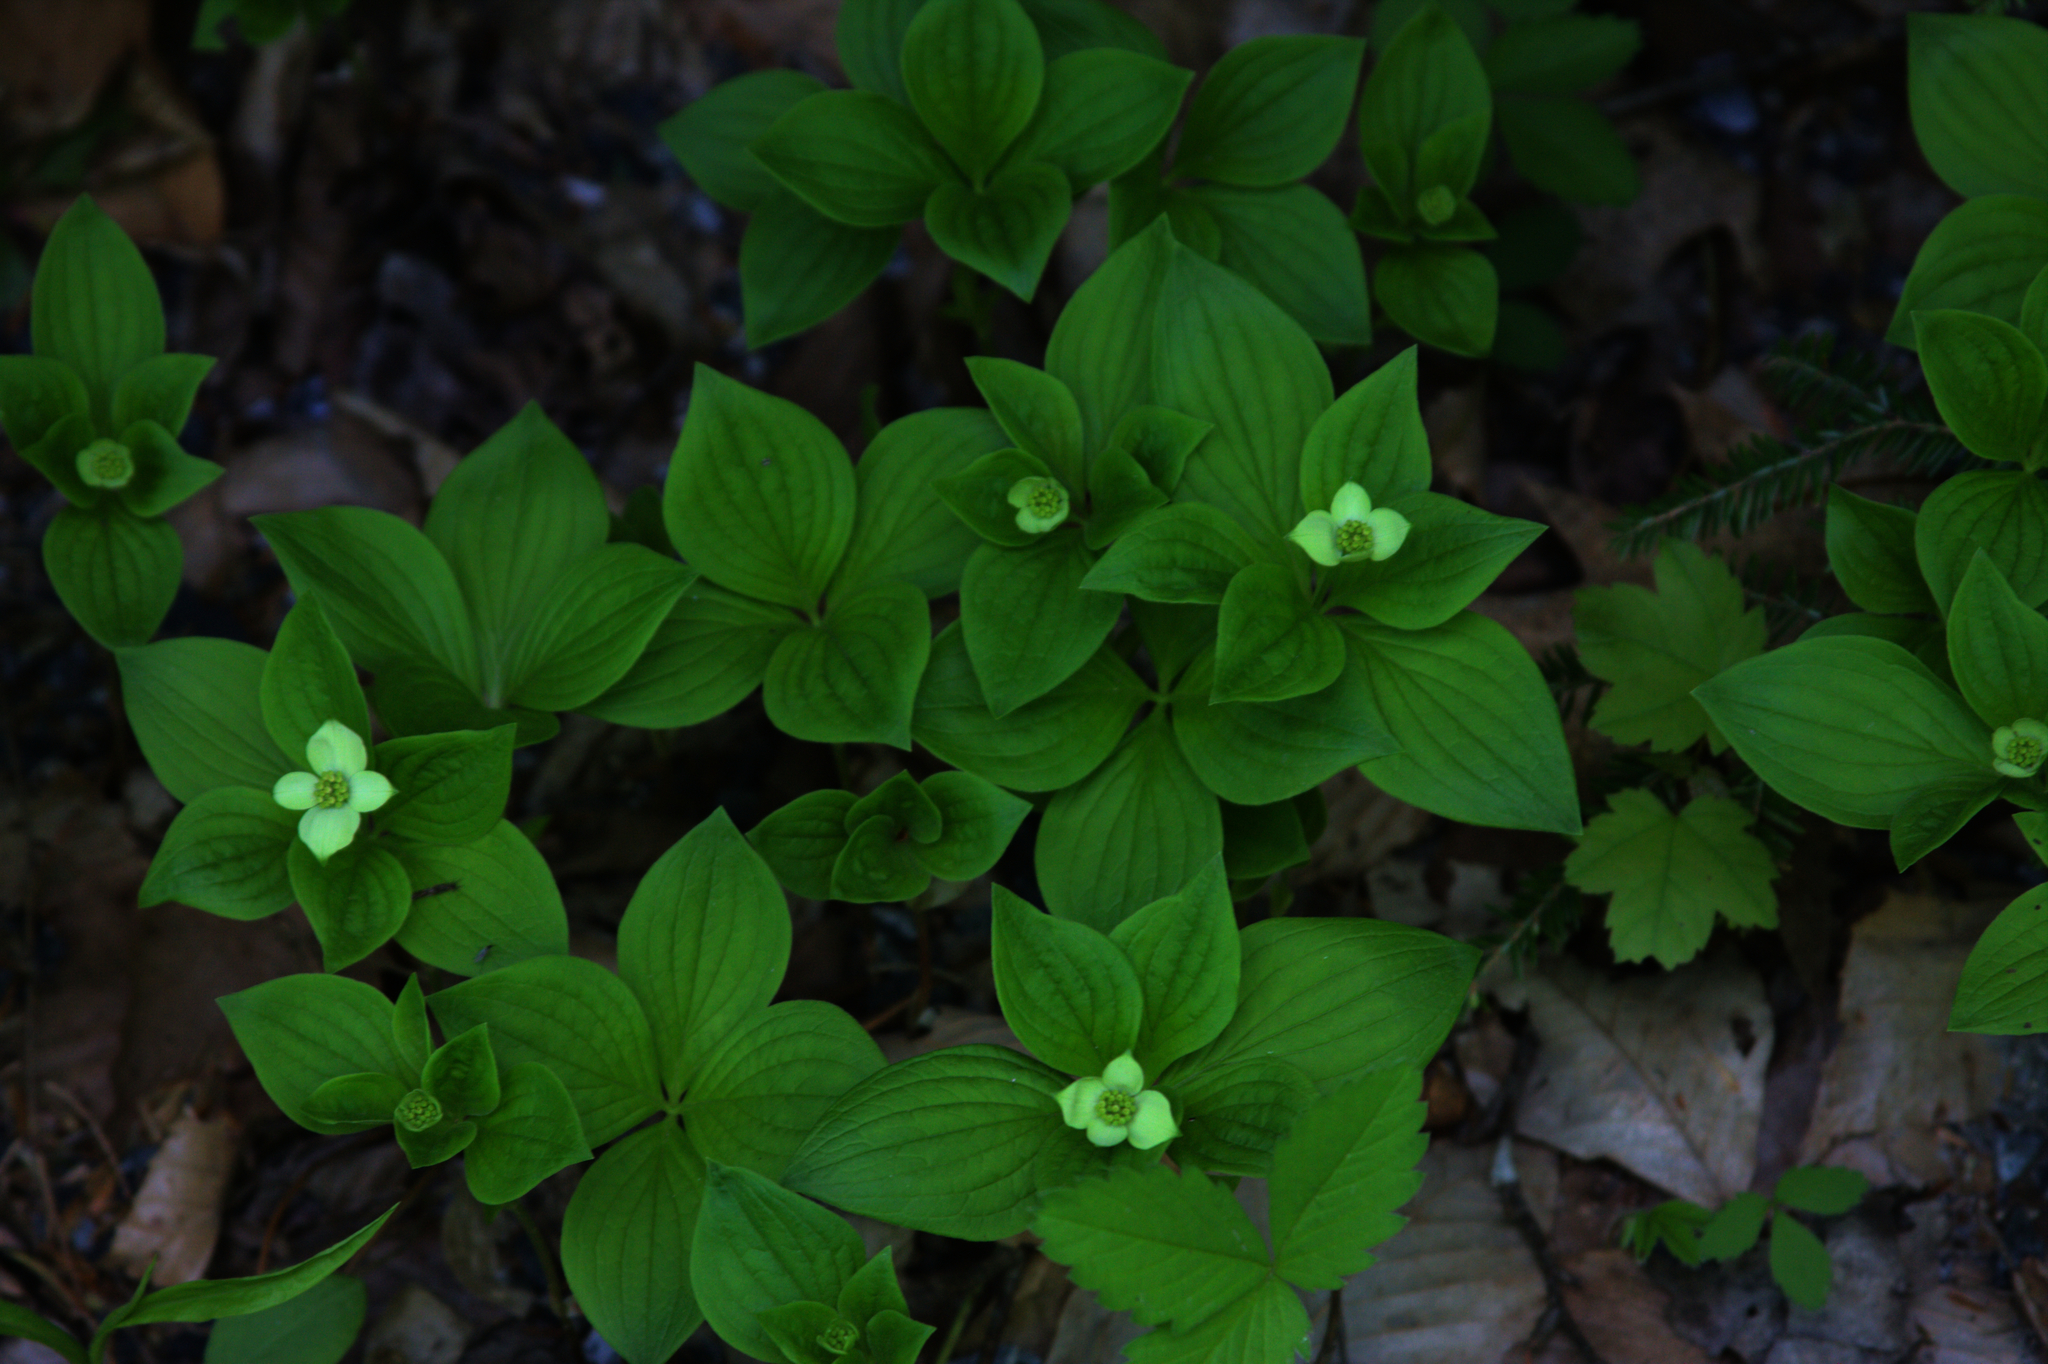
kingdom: Plantae
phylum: Tracheophyta
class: Magnoliopsida
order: Cornales
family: Cornaceae
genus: Cornus
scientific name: Cornus canadensis
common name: Creeping dogwood
